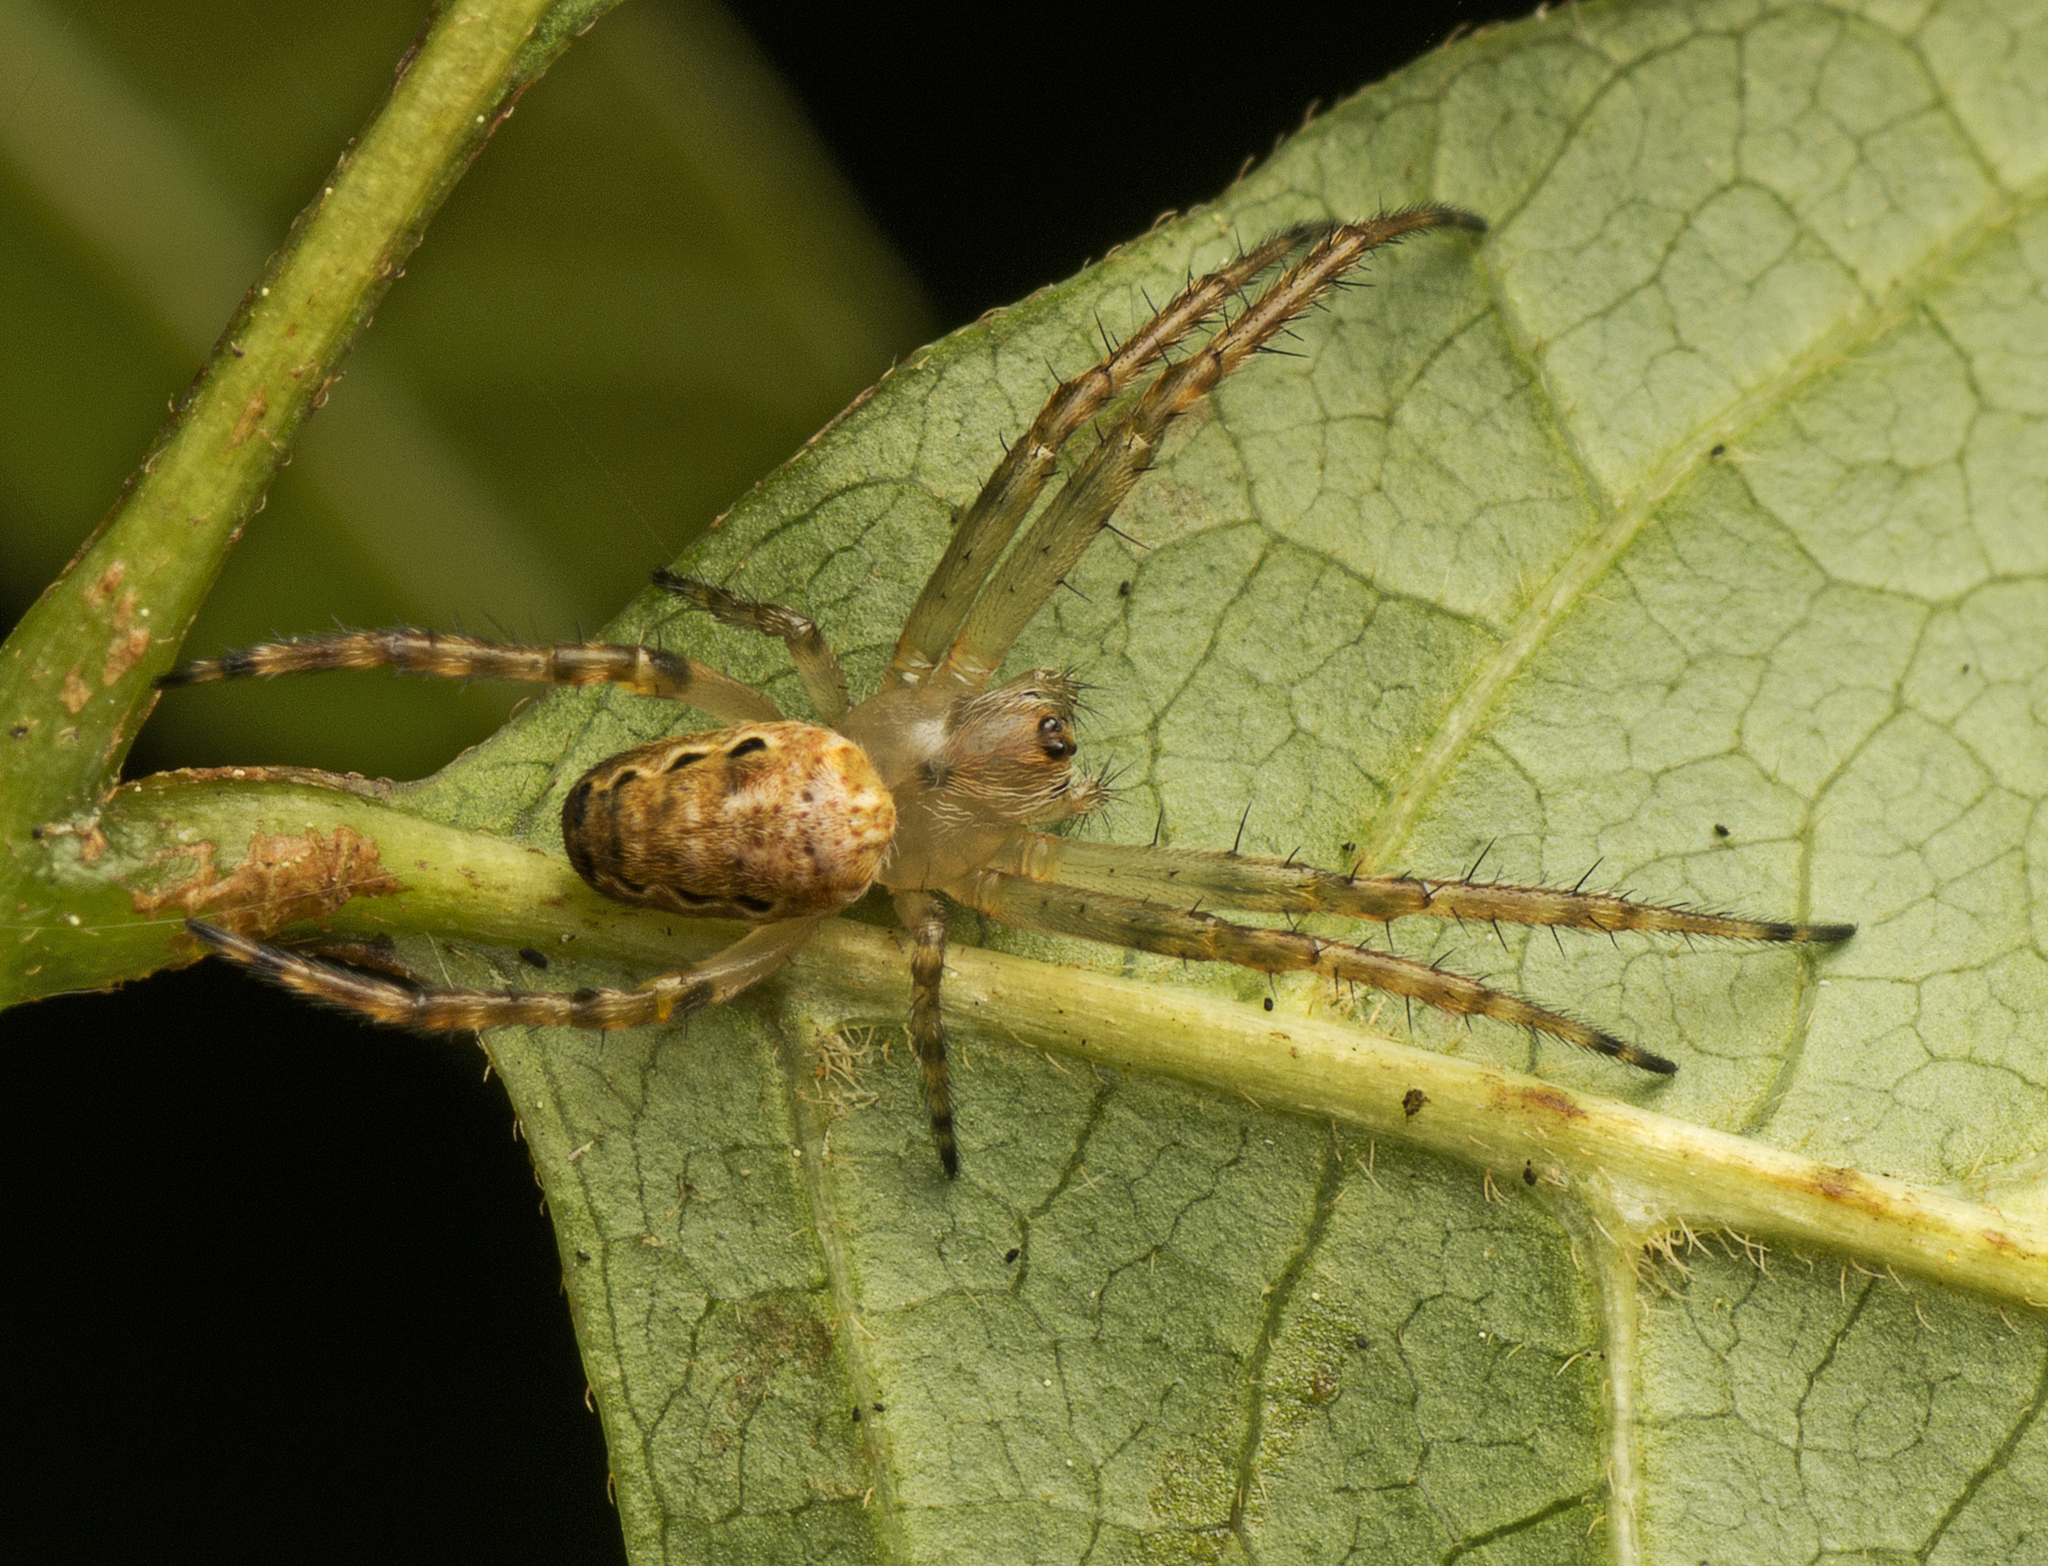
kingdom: Animalia
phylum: Arthropoda
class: Arachnida
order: Araneae
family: Araneidae
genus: Plebs
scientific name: Plebs eburnus
